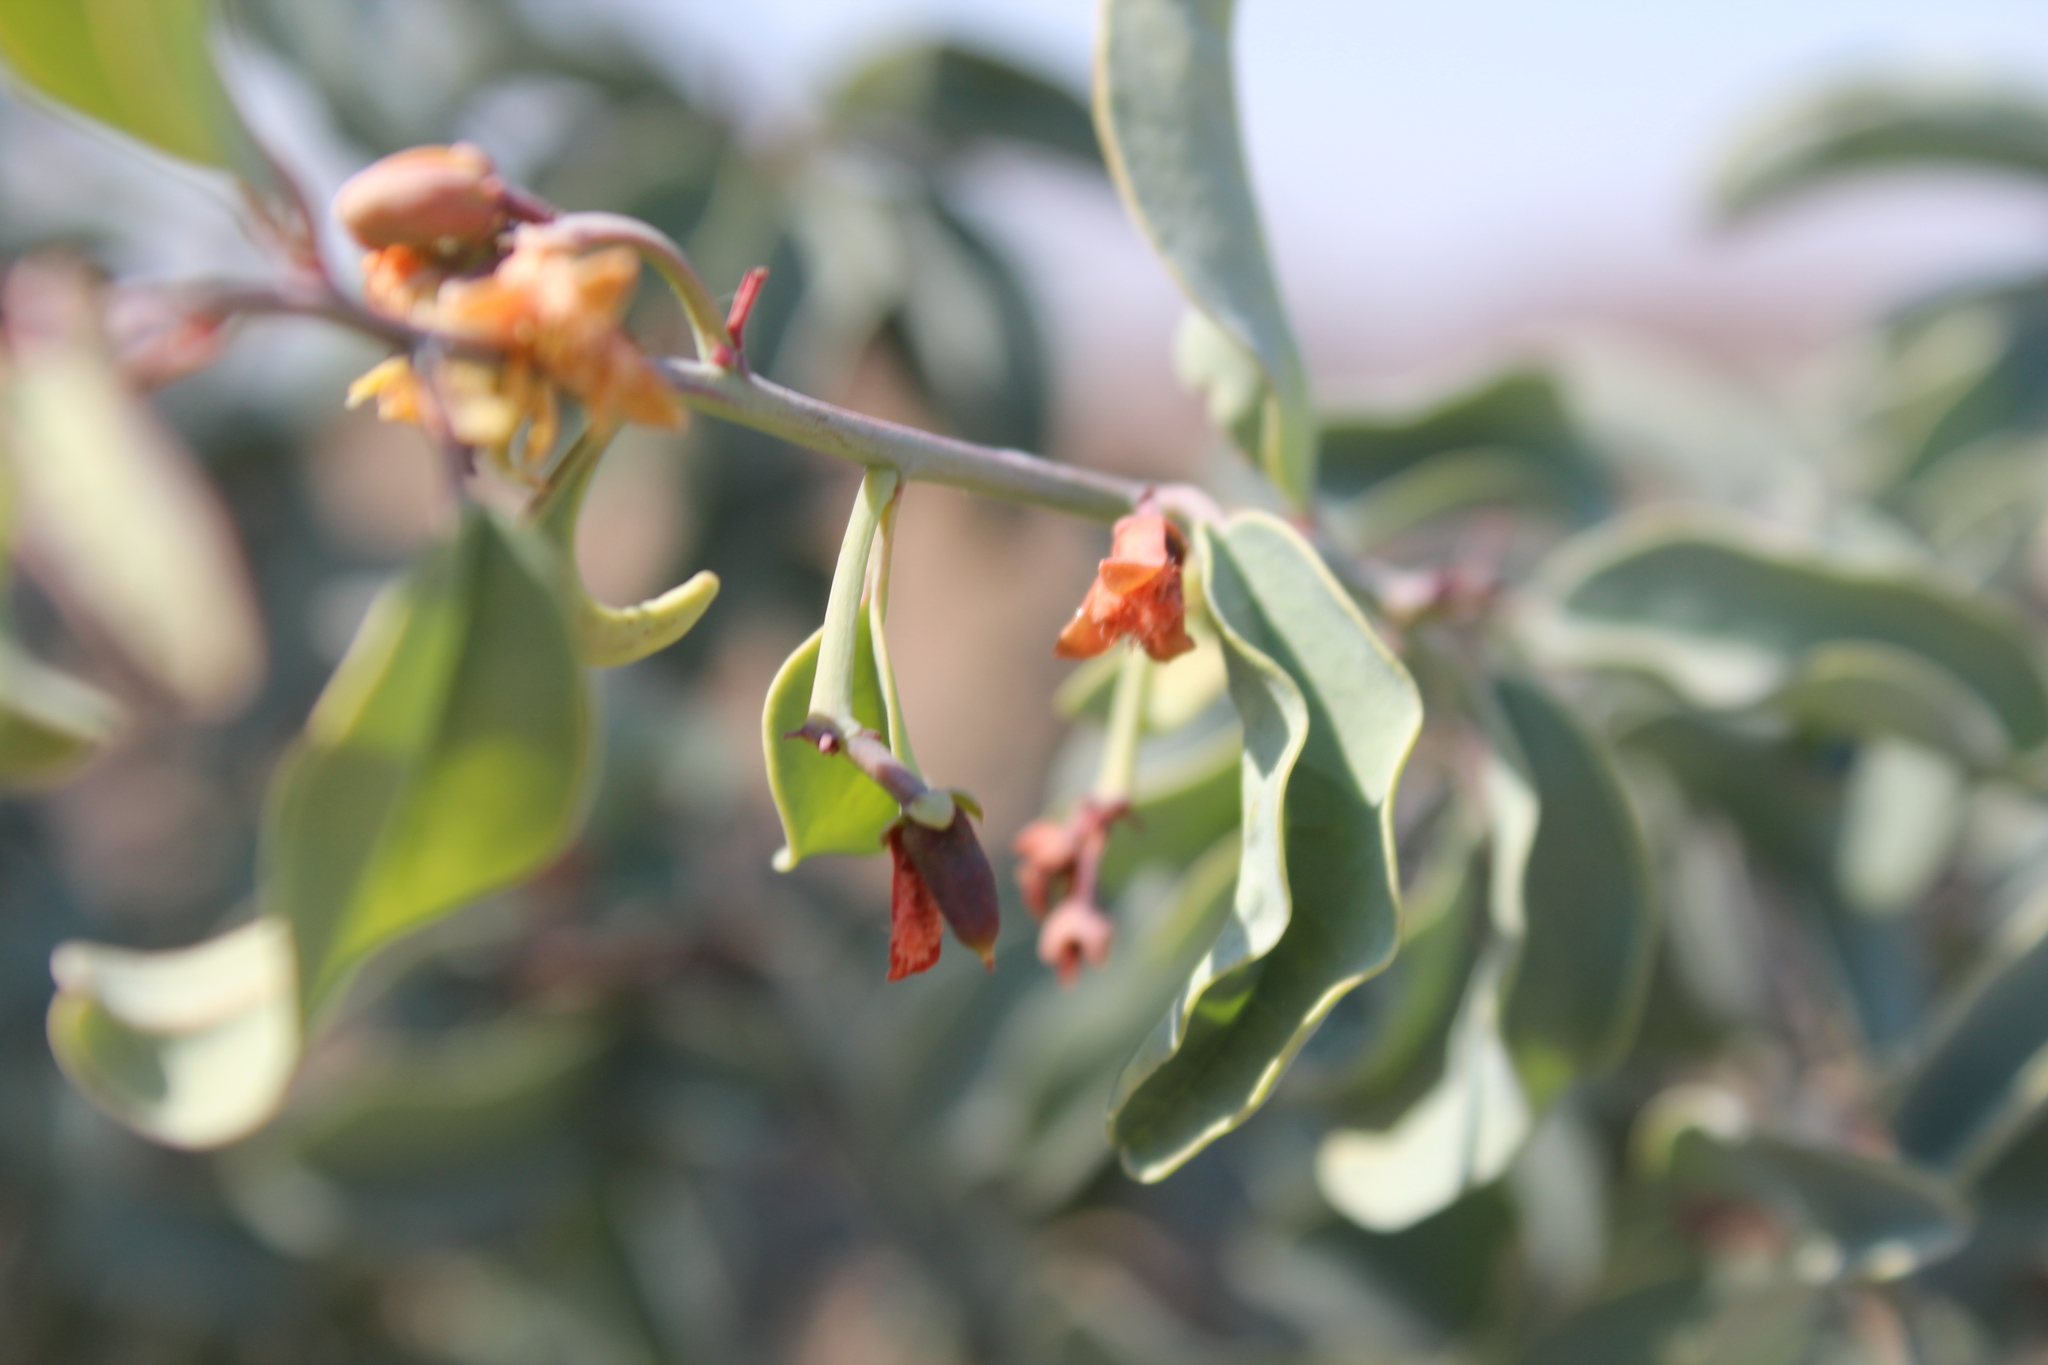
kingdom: Plantae
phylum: Tracheophyta
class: Magnoliopsida
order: Santalales
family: Ximeniaceae
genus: Ximenia
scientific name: Ximenia americana
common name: Tallowwood
